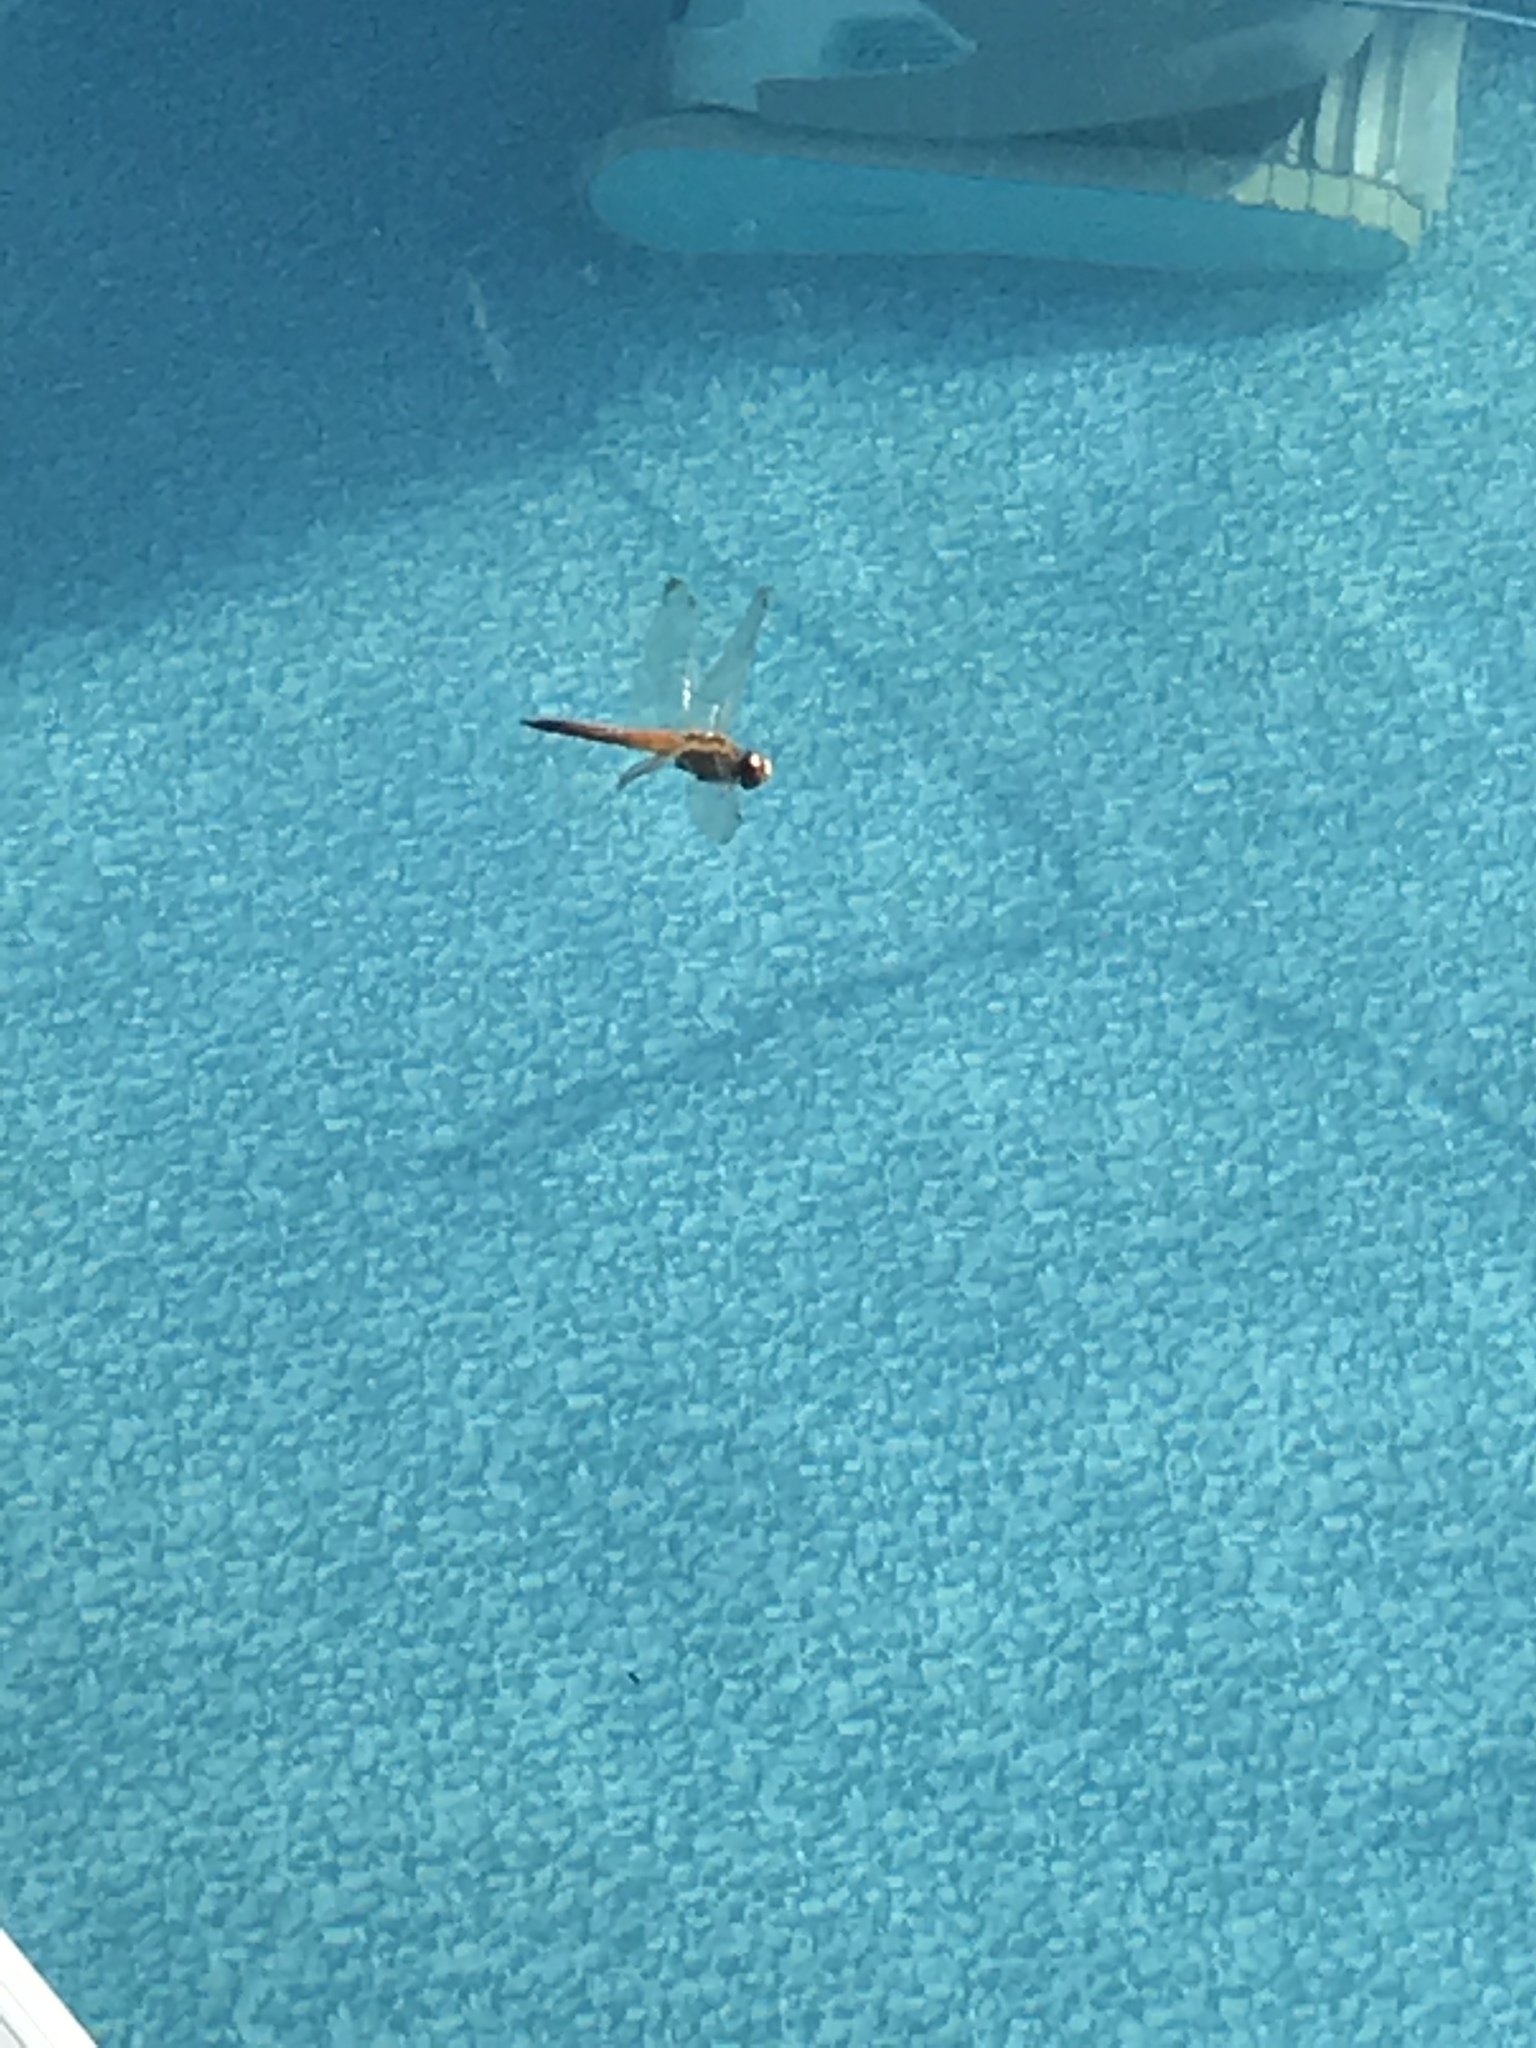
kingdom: Animalia
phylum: Arthropoda
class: Insecta
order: Odonata
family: Libellulidae
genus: Pantala
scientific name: Pantala flavescens
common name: Wandering glider
